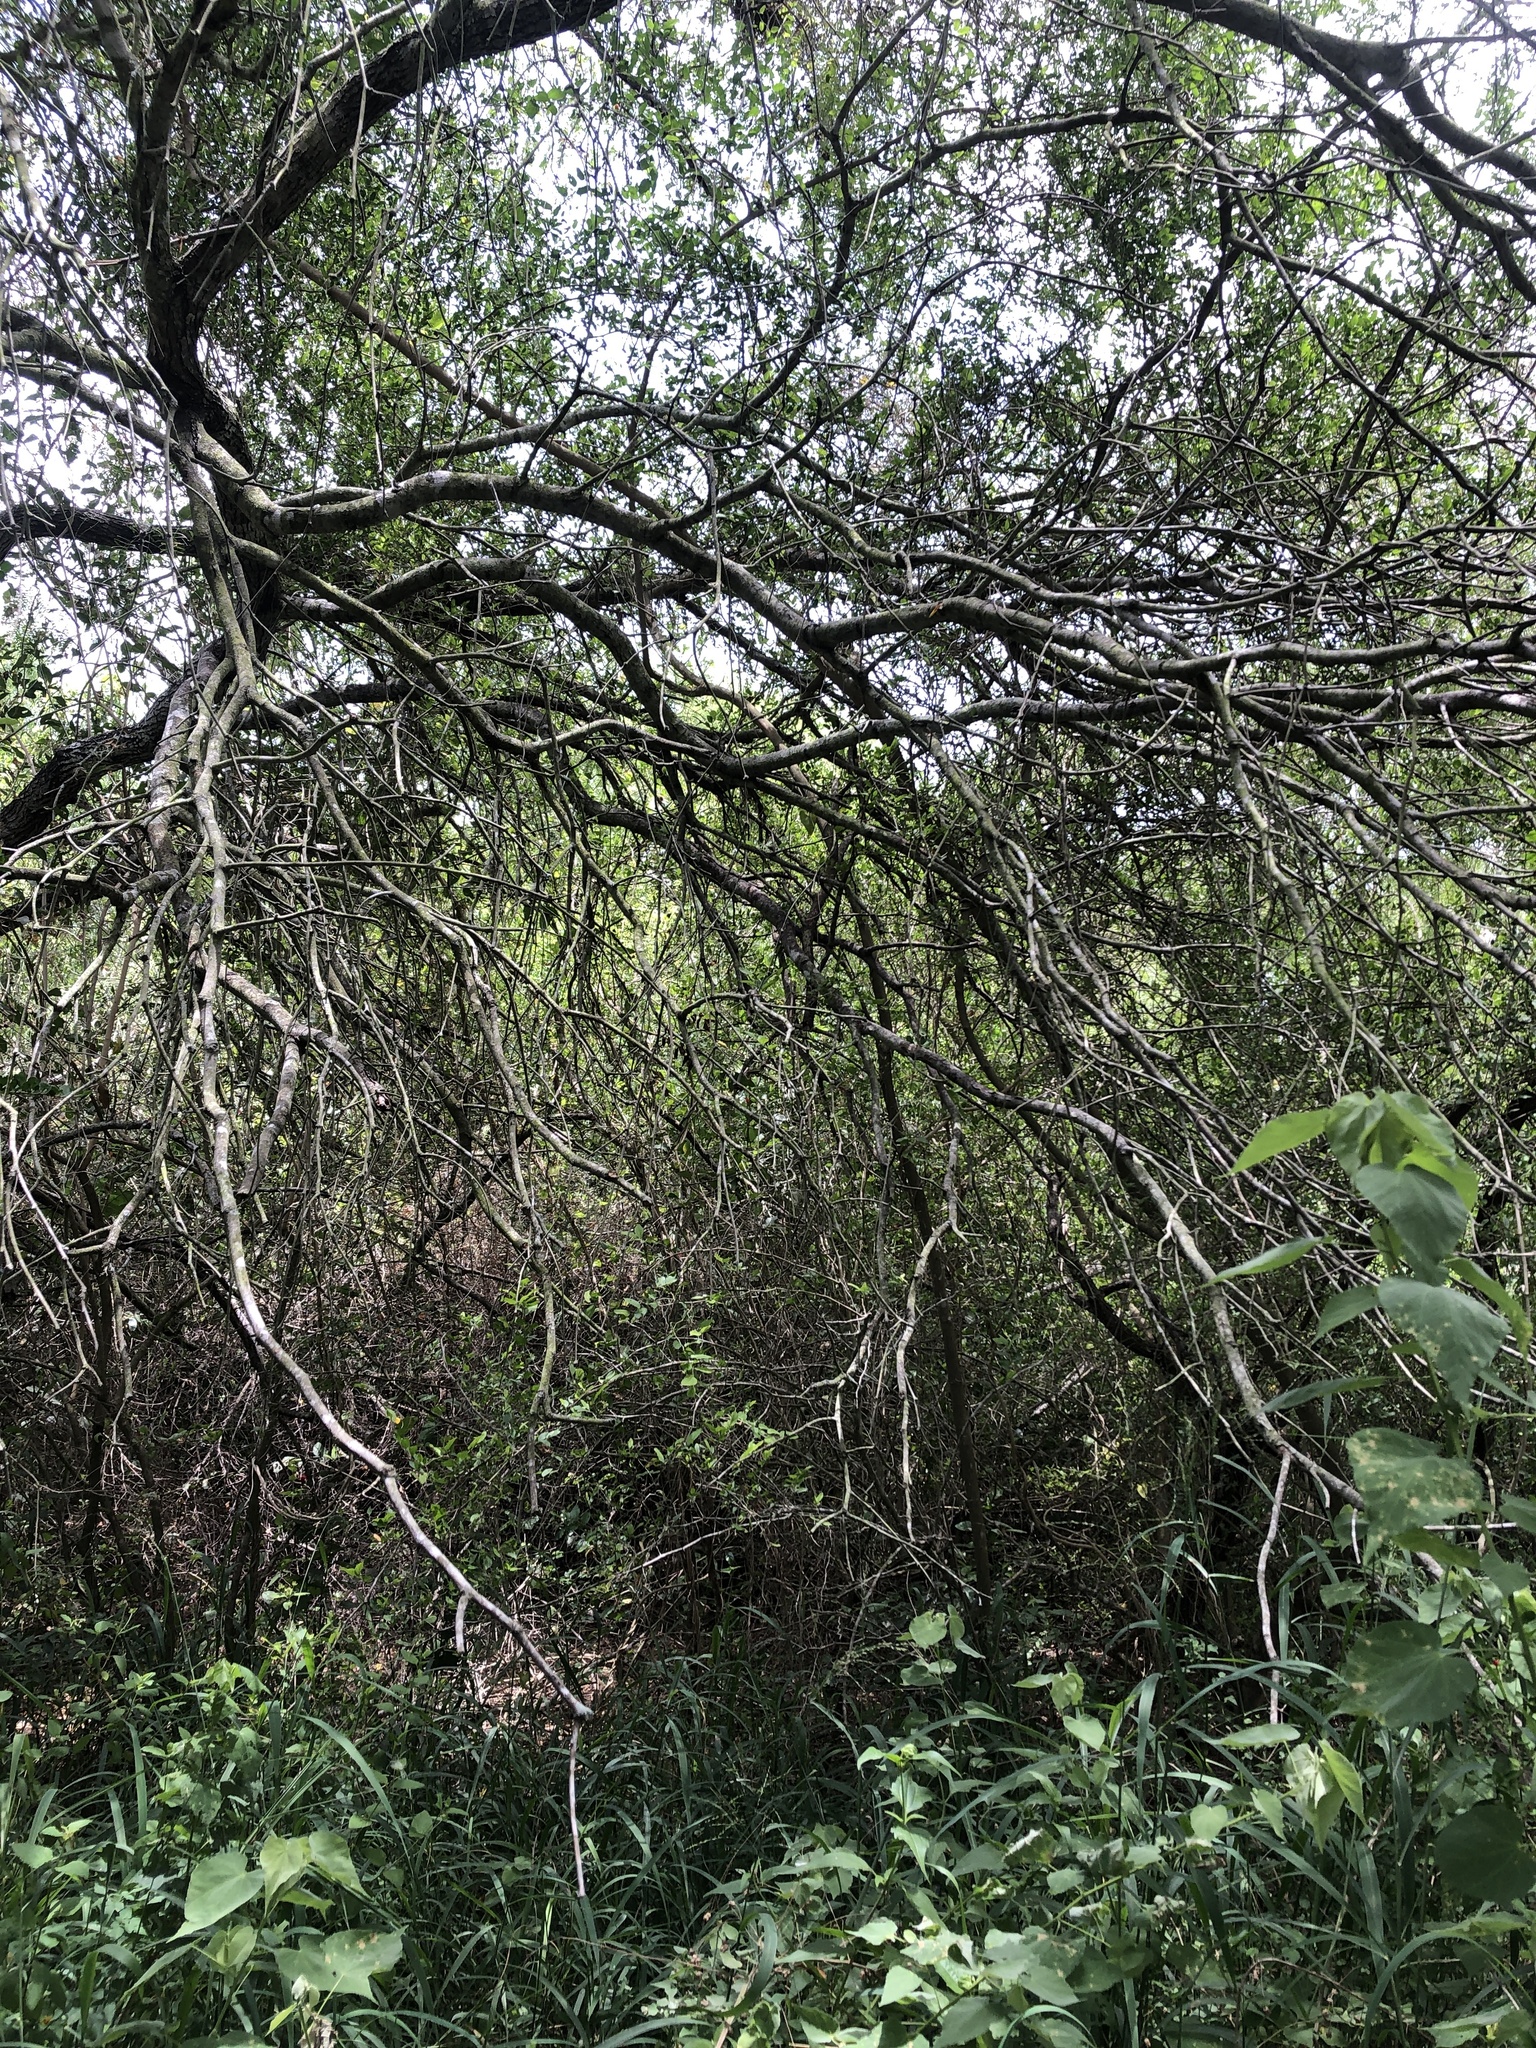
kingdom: Animalia
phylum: Chordata
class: Aves
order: Passeriformes
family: Troglodytidae
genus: Thryothorus
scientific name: Thryothorus ludovicianus
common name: Carolina wren
